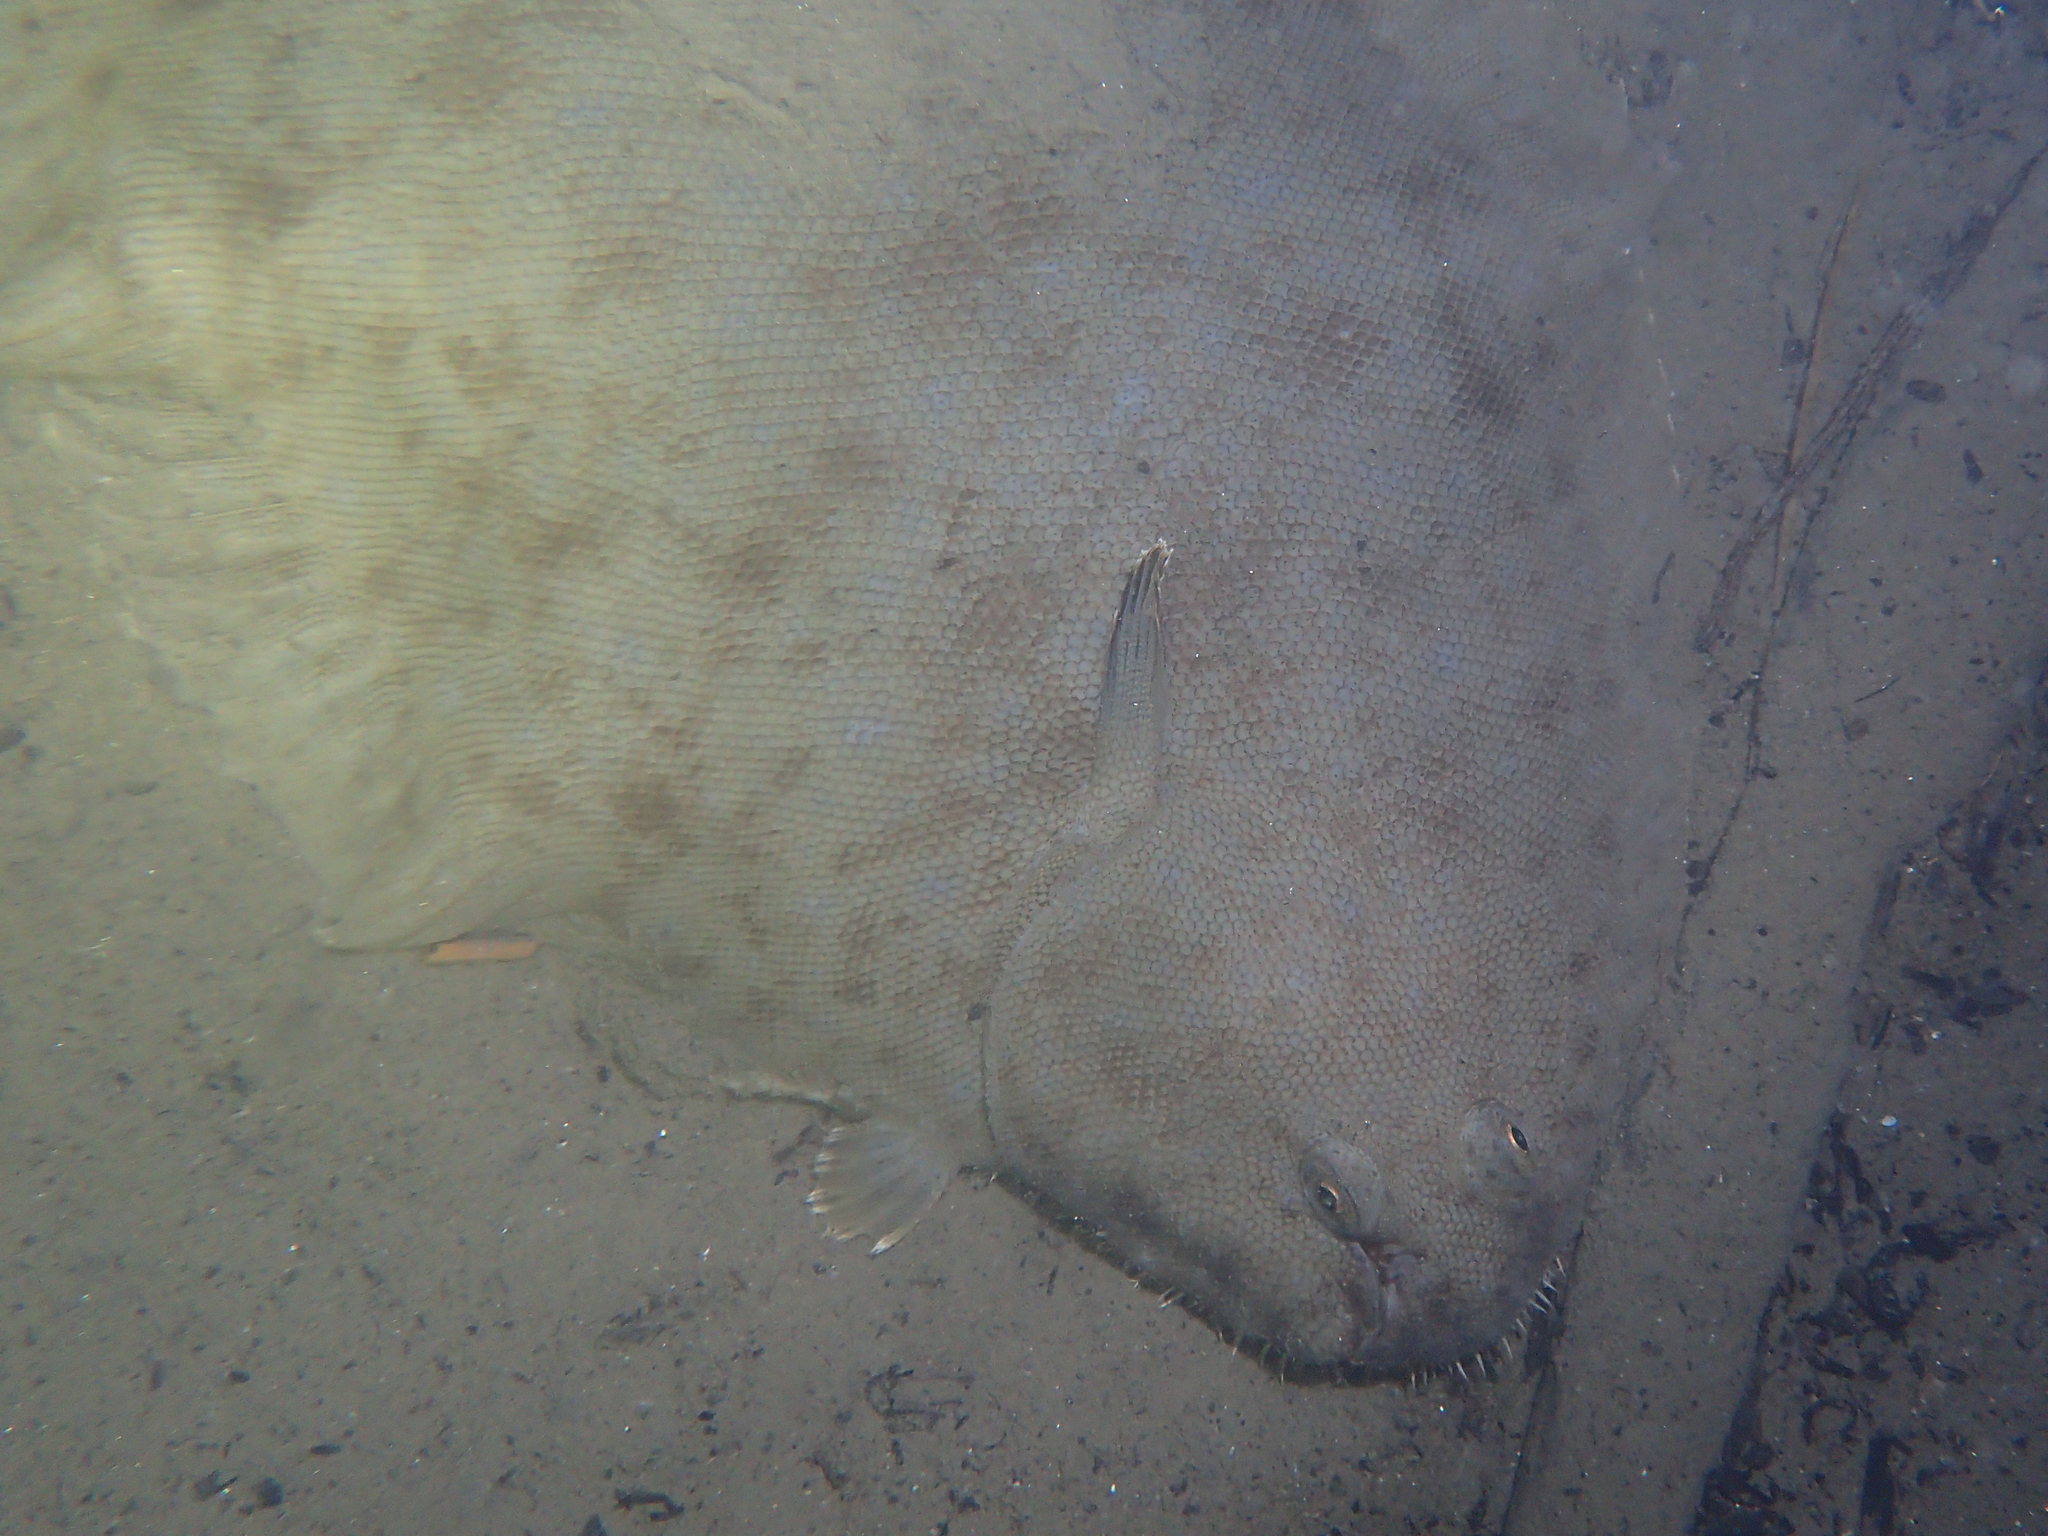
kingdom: Animalia
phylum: Chordata
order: Pleuronectiformes
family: Soleidae
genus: Solea
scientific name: Solea senegalensis
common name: Senegalese sole
